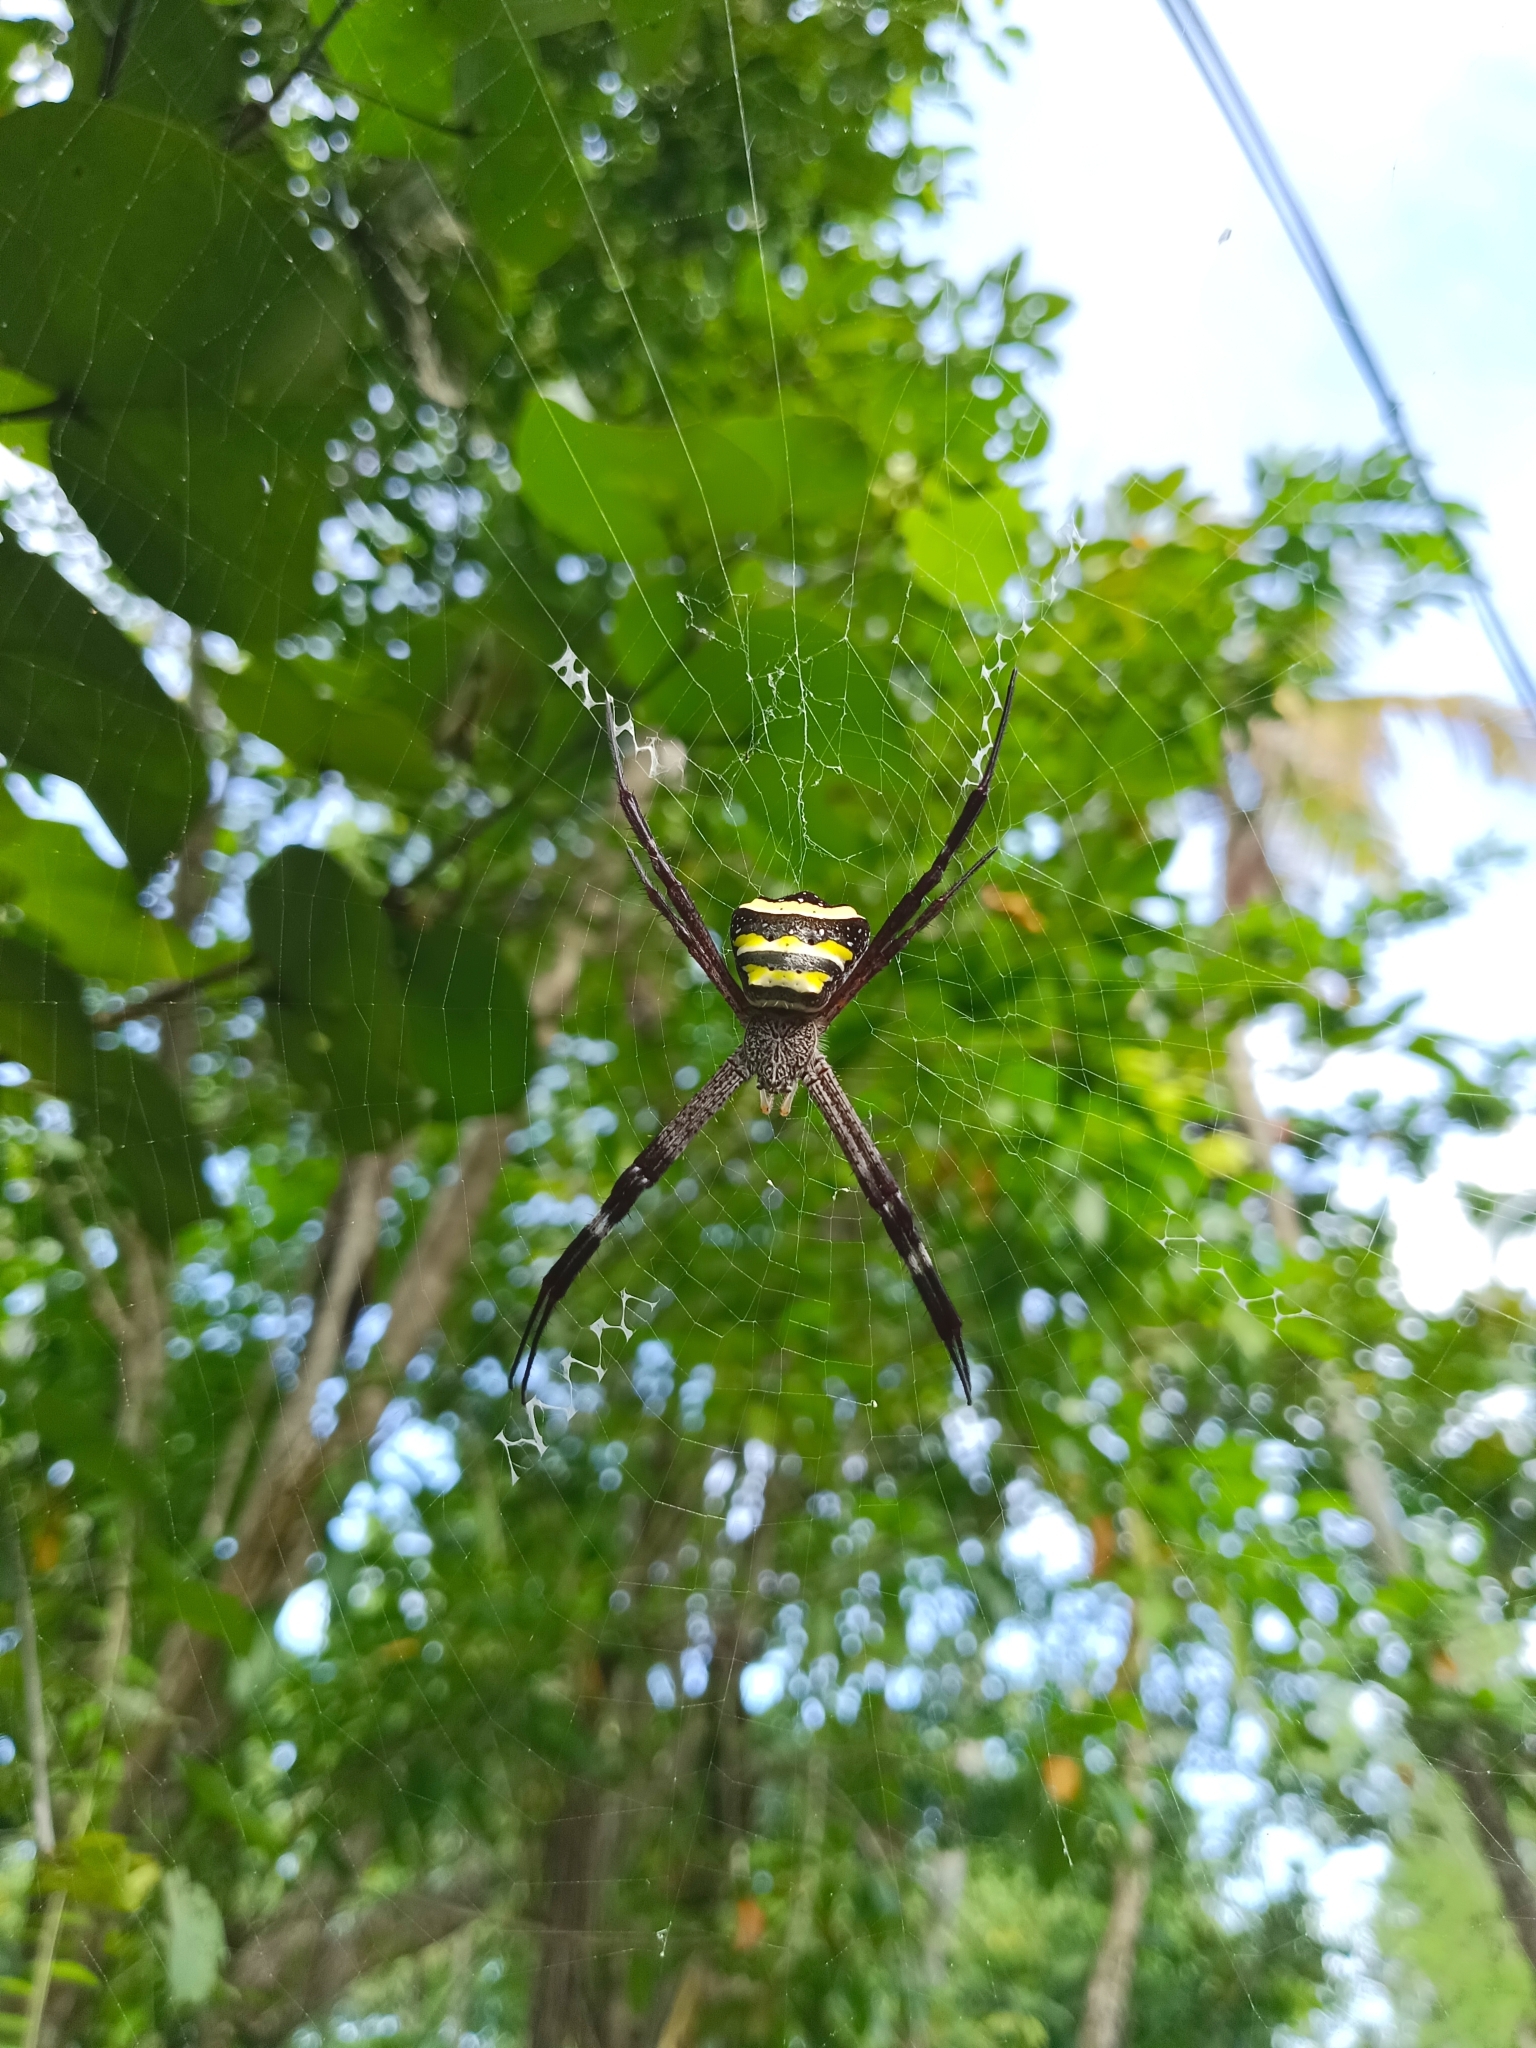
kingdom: Animalia
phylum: Arthropoda
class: Arachnida
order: Araneae
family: Araneidae
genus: Argiope
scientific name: Argiope taprobanica
